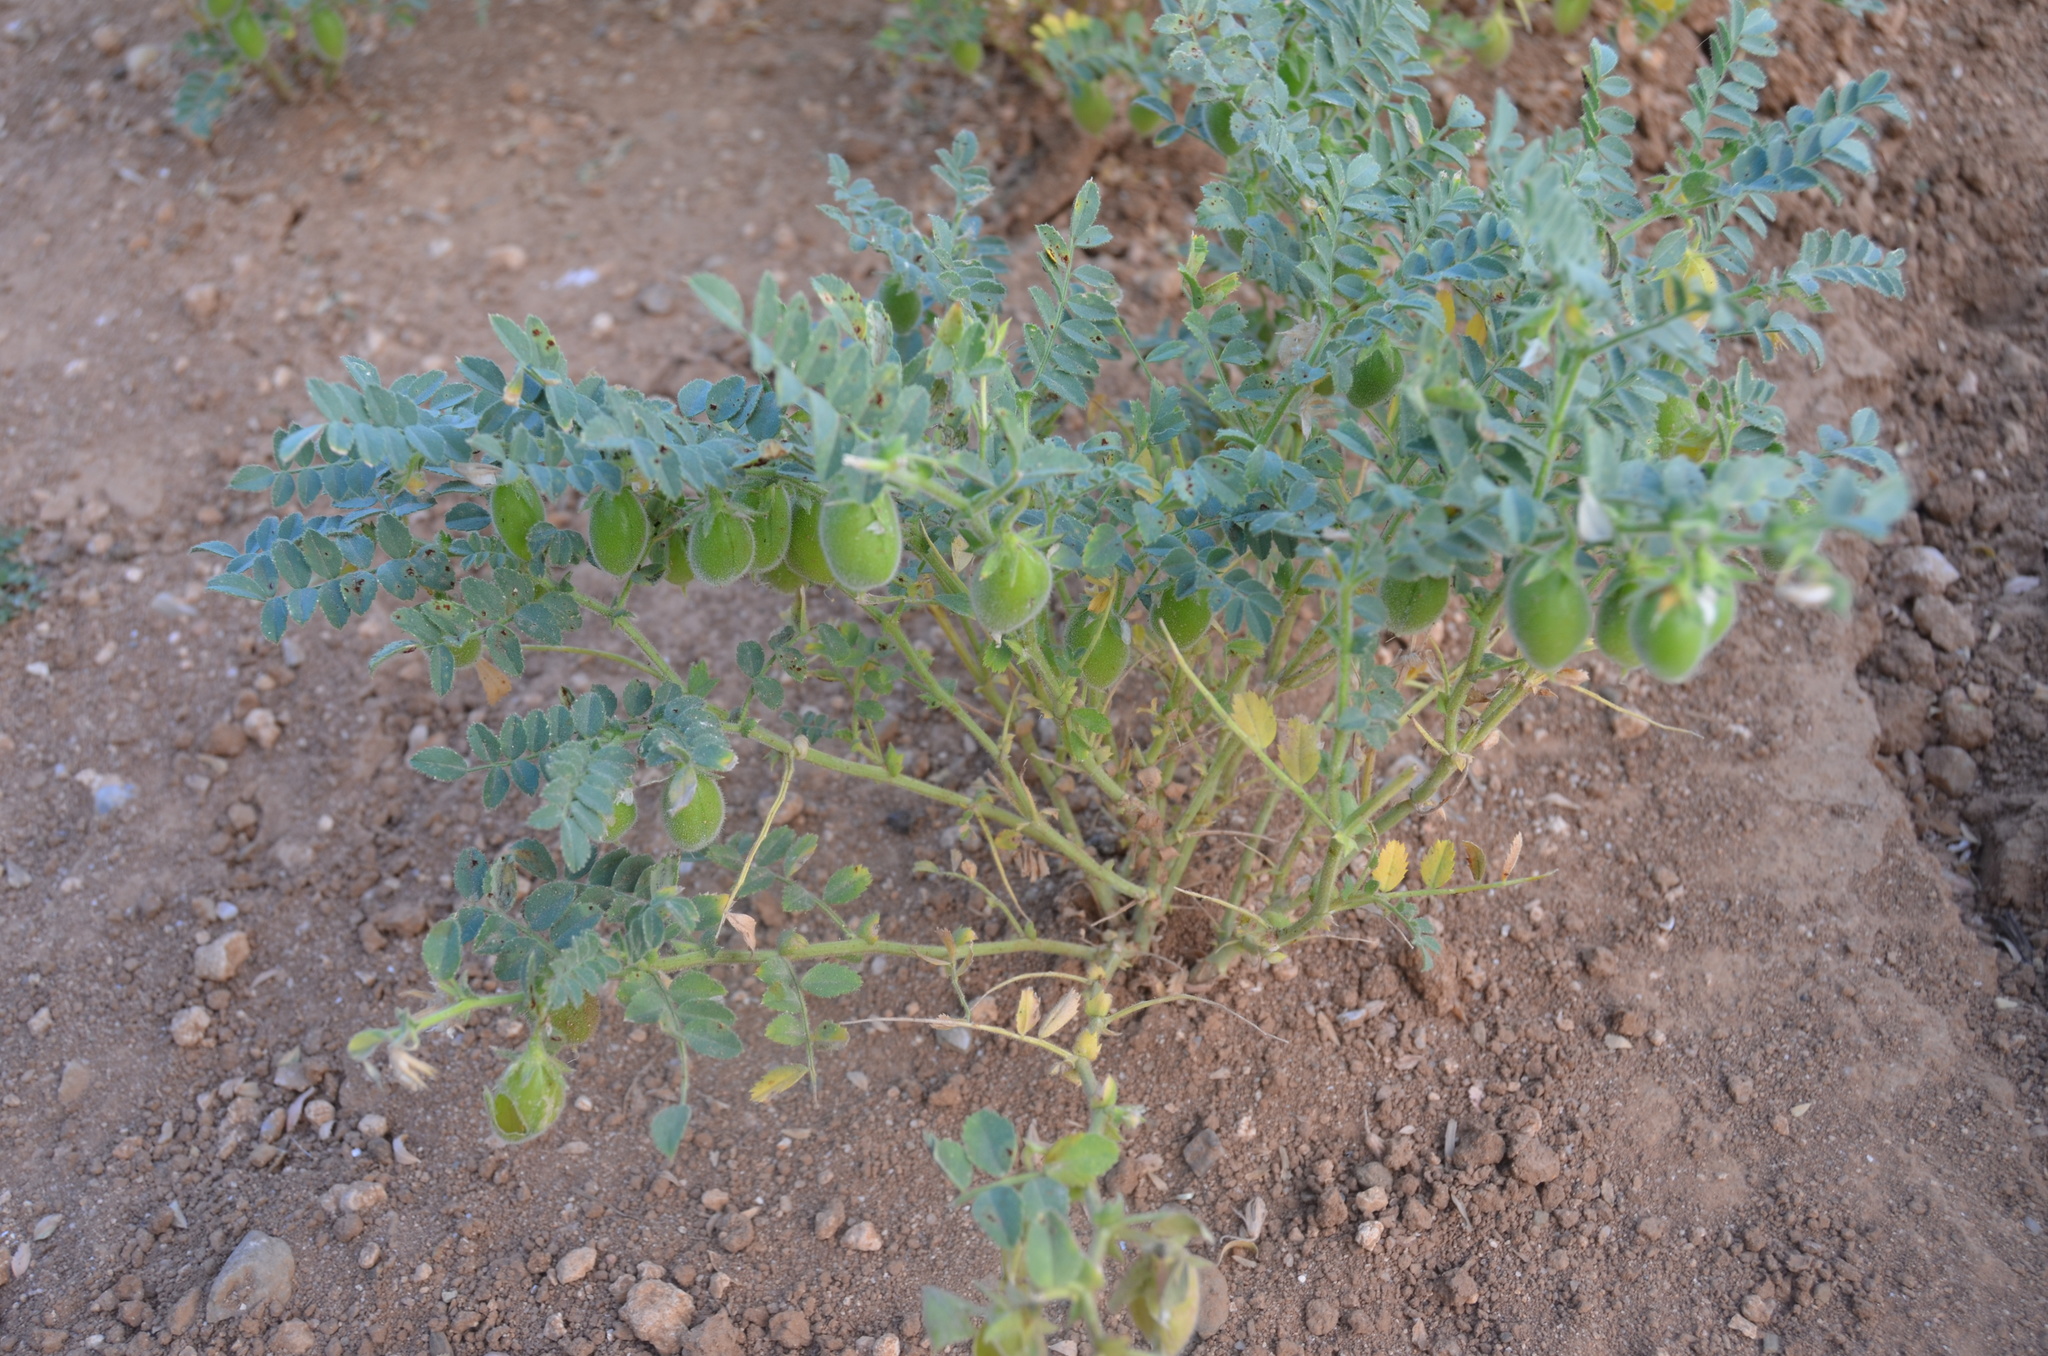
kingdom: Plantae
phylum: Tracheophyta
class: Magnoliopsida
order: Fabales
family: Fabaceae
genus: Cicer
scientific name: Cicer arietinum
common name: Chick pea
